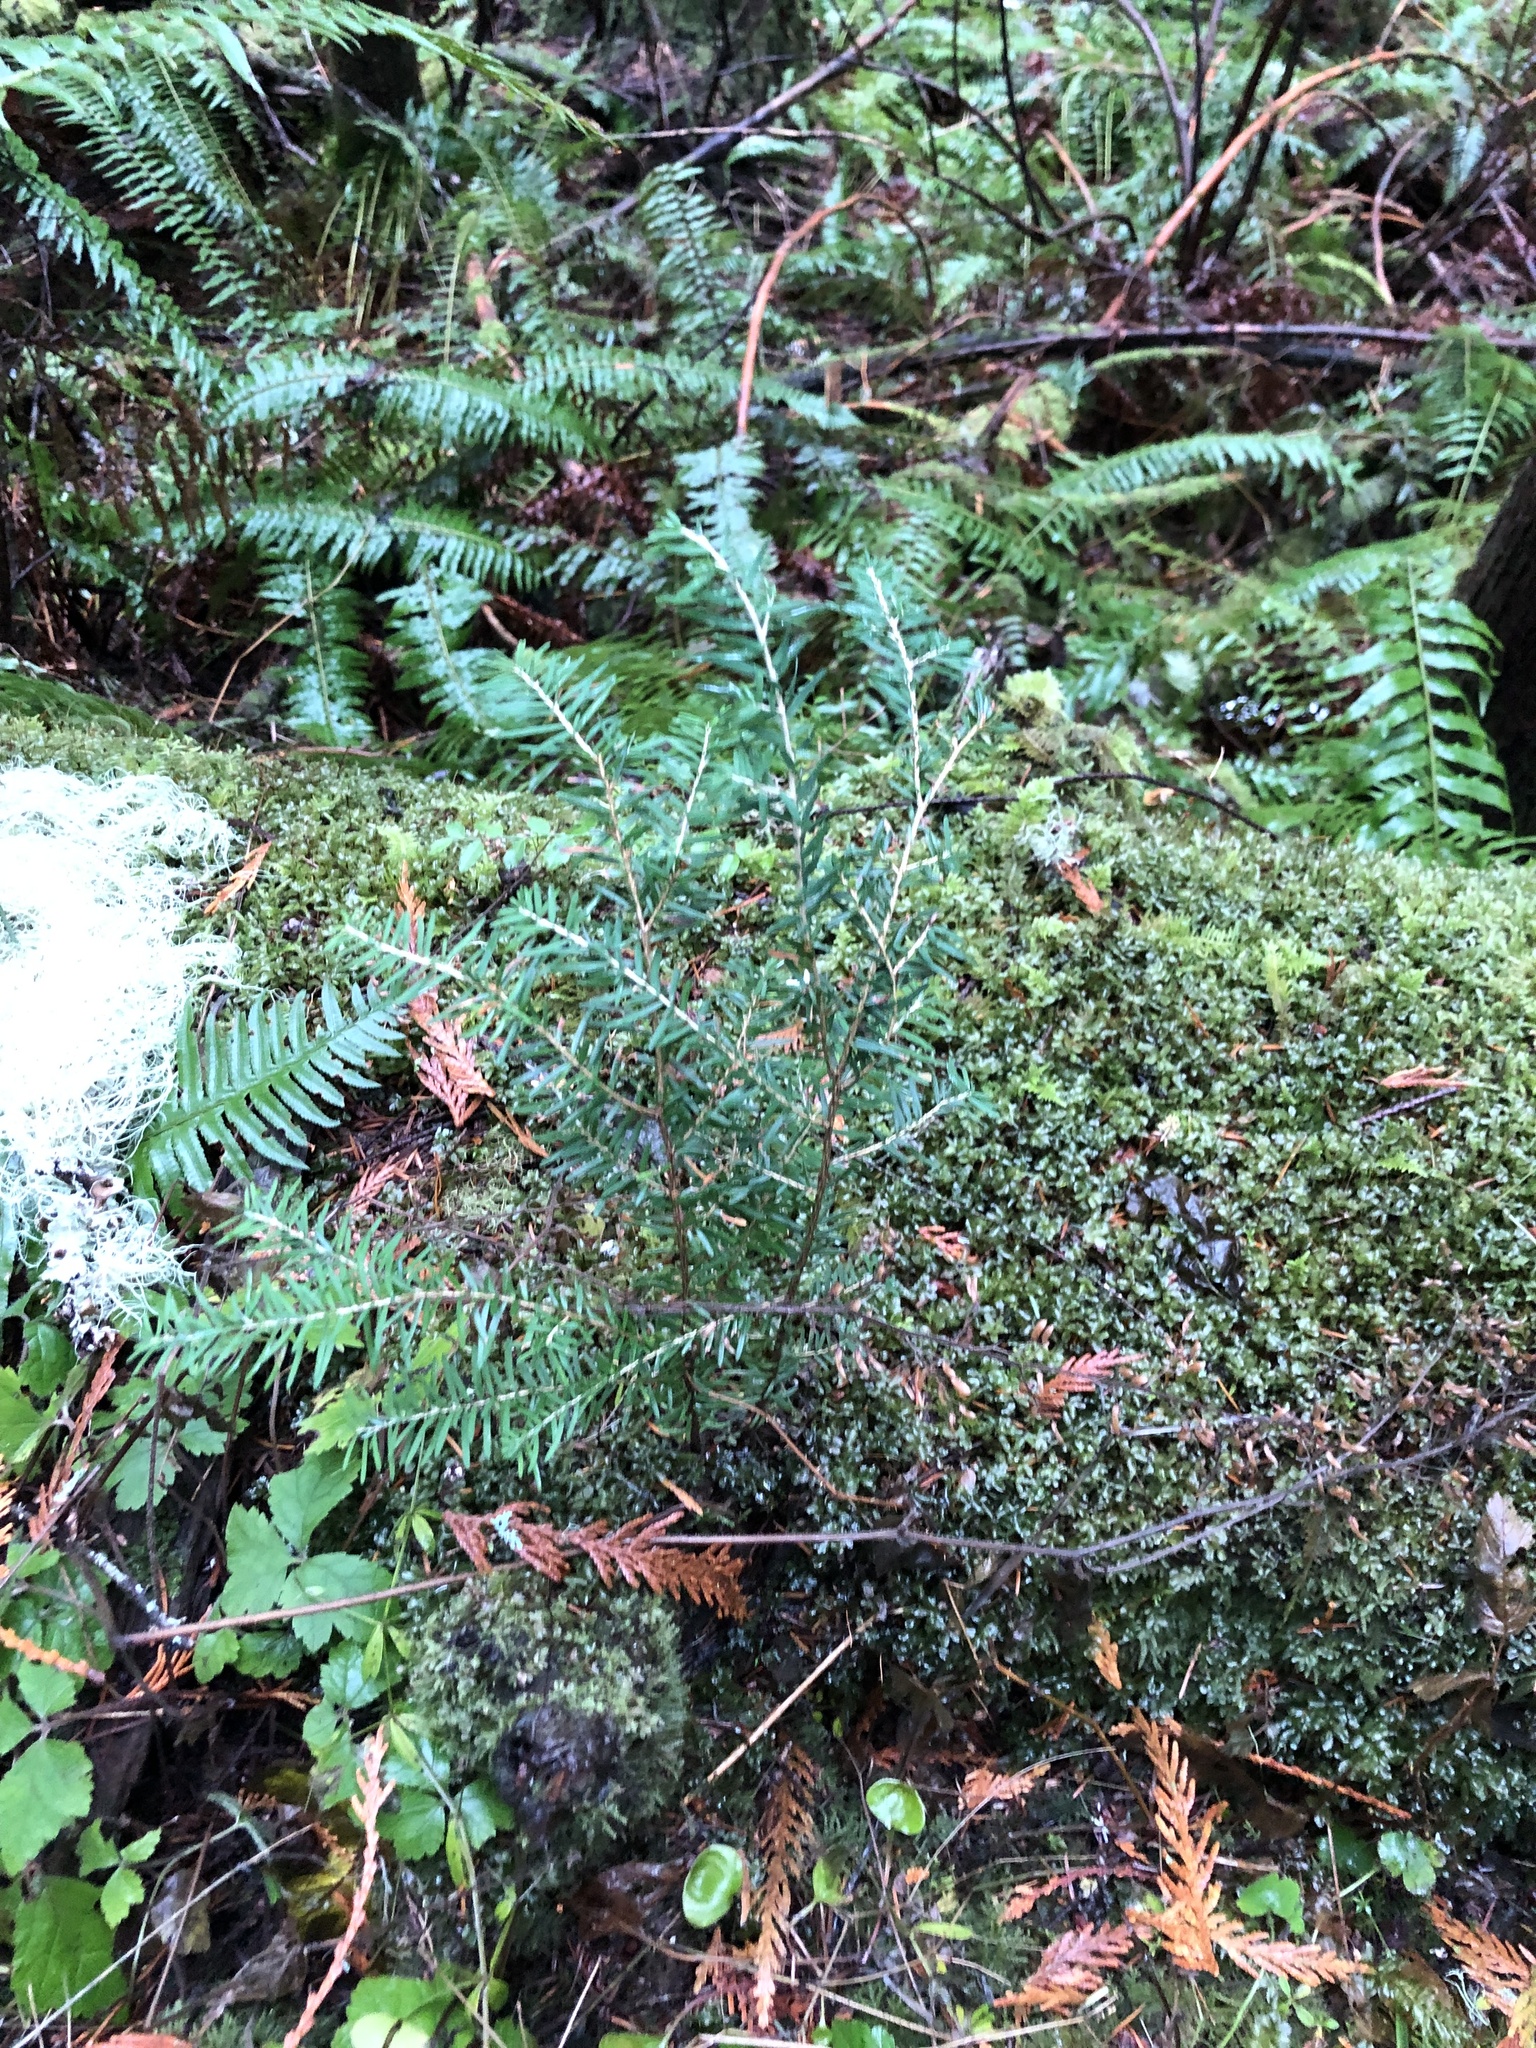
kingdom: Plantae
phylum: Tracheophyta
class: Pinopsida
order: Pinales
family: Pinaceae
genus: Tsuga
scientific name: Tsuga heterophylla
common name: Western hemlock
